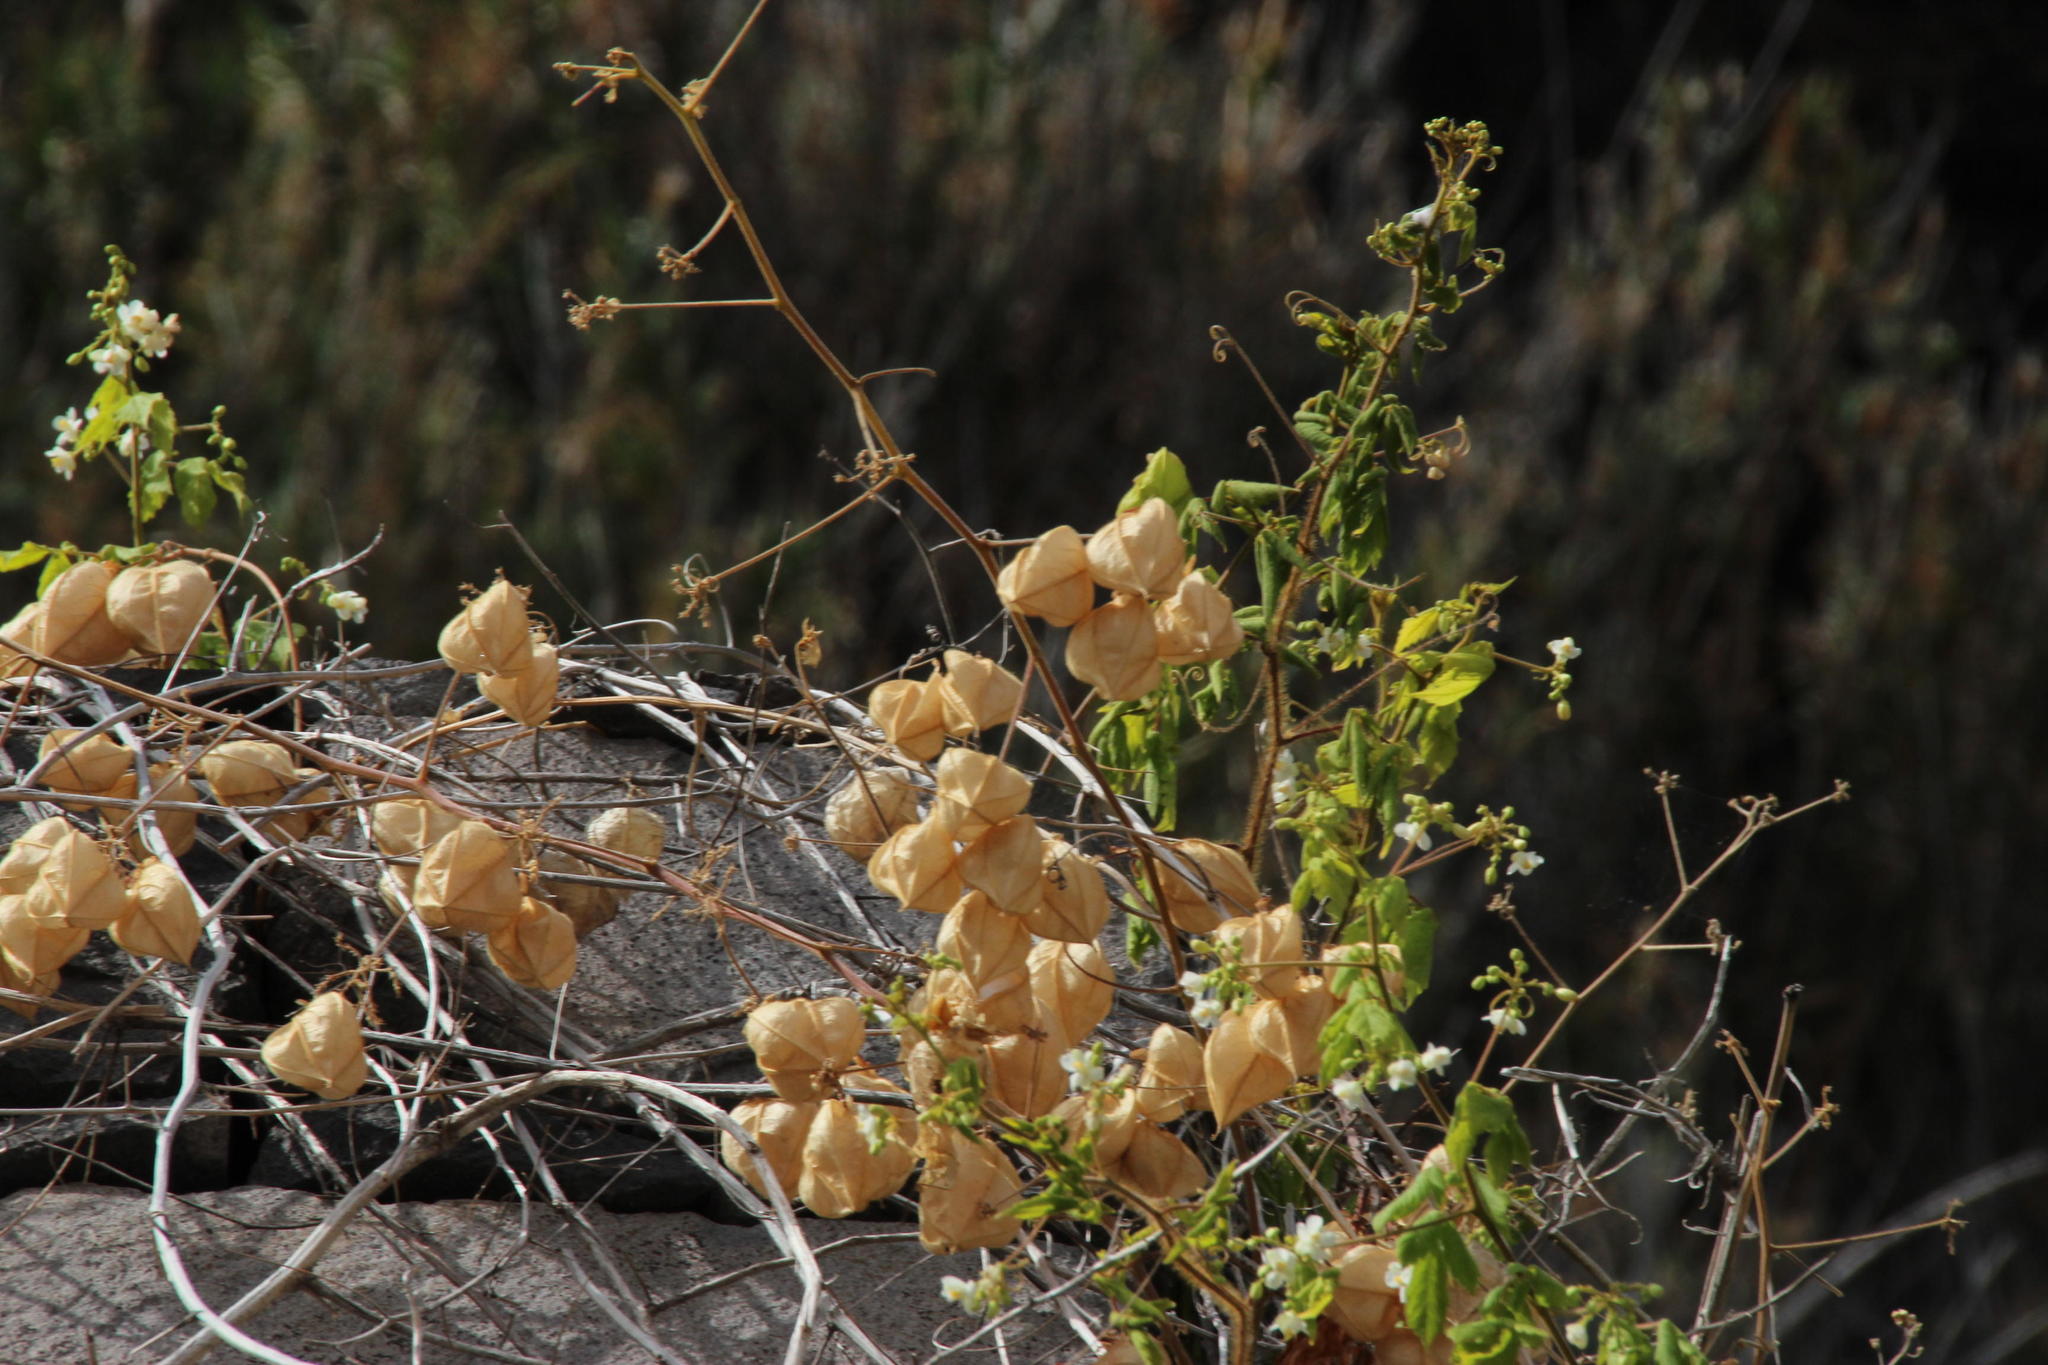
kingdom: Plantae
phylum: Tracheophyta
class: Magnoliopsida
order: Sapindales
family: Sapindaceae
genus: Cardiospermum
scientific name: Cardiospermum grandiflorum
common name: Balloon vine
